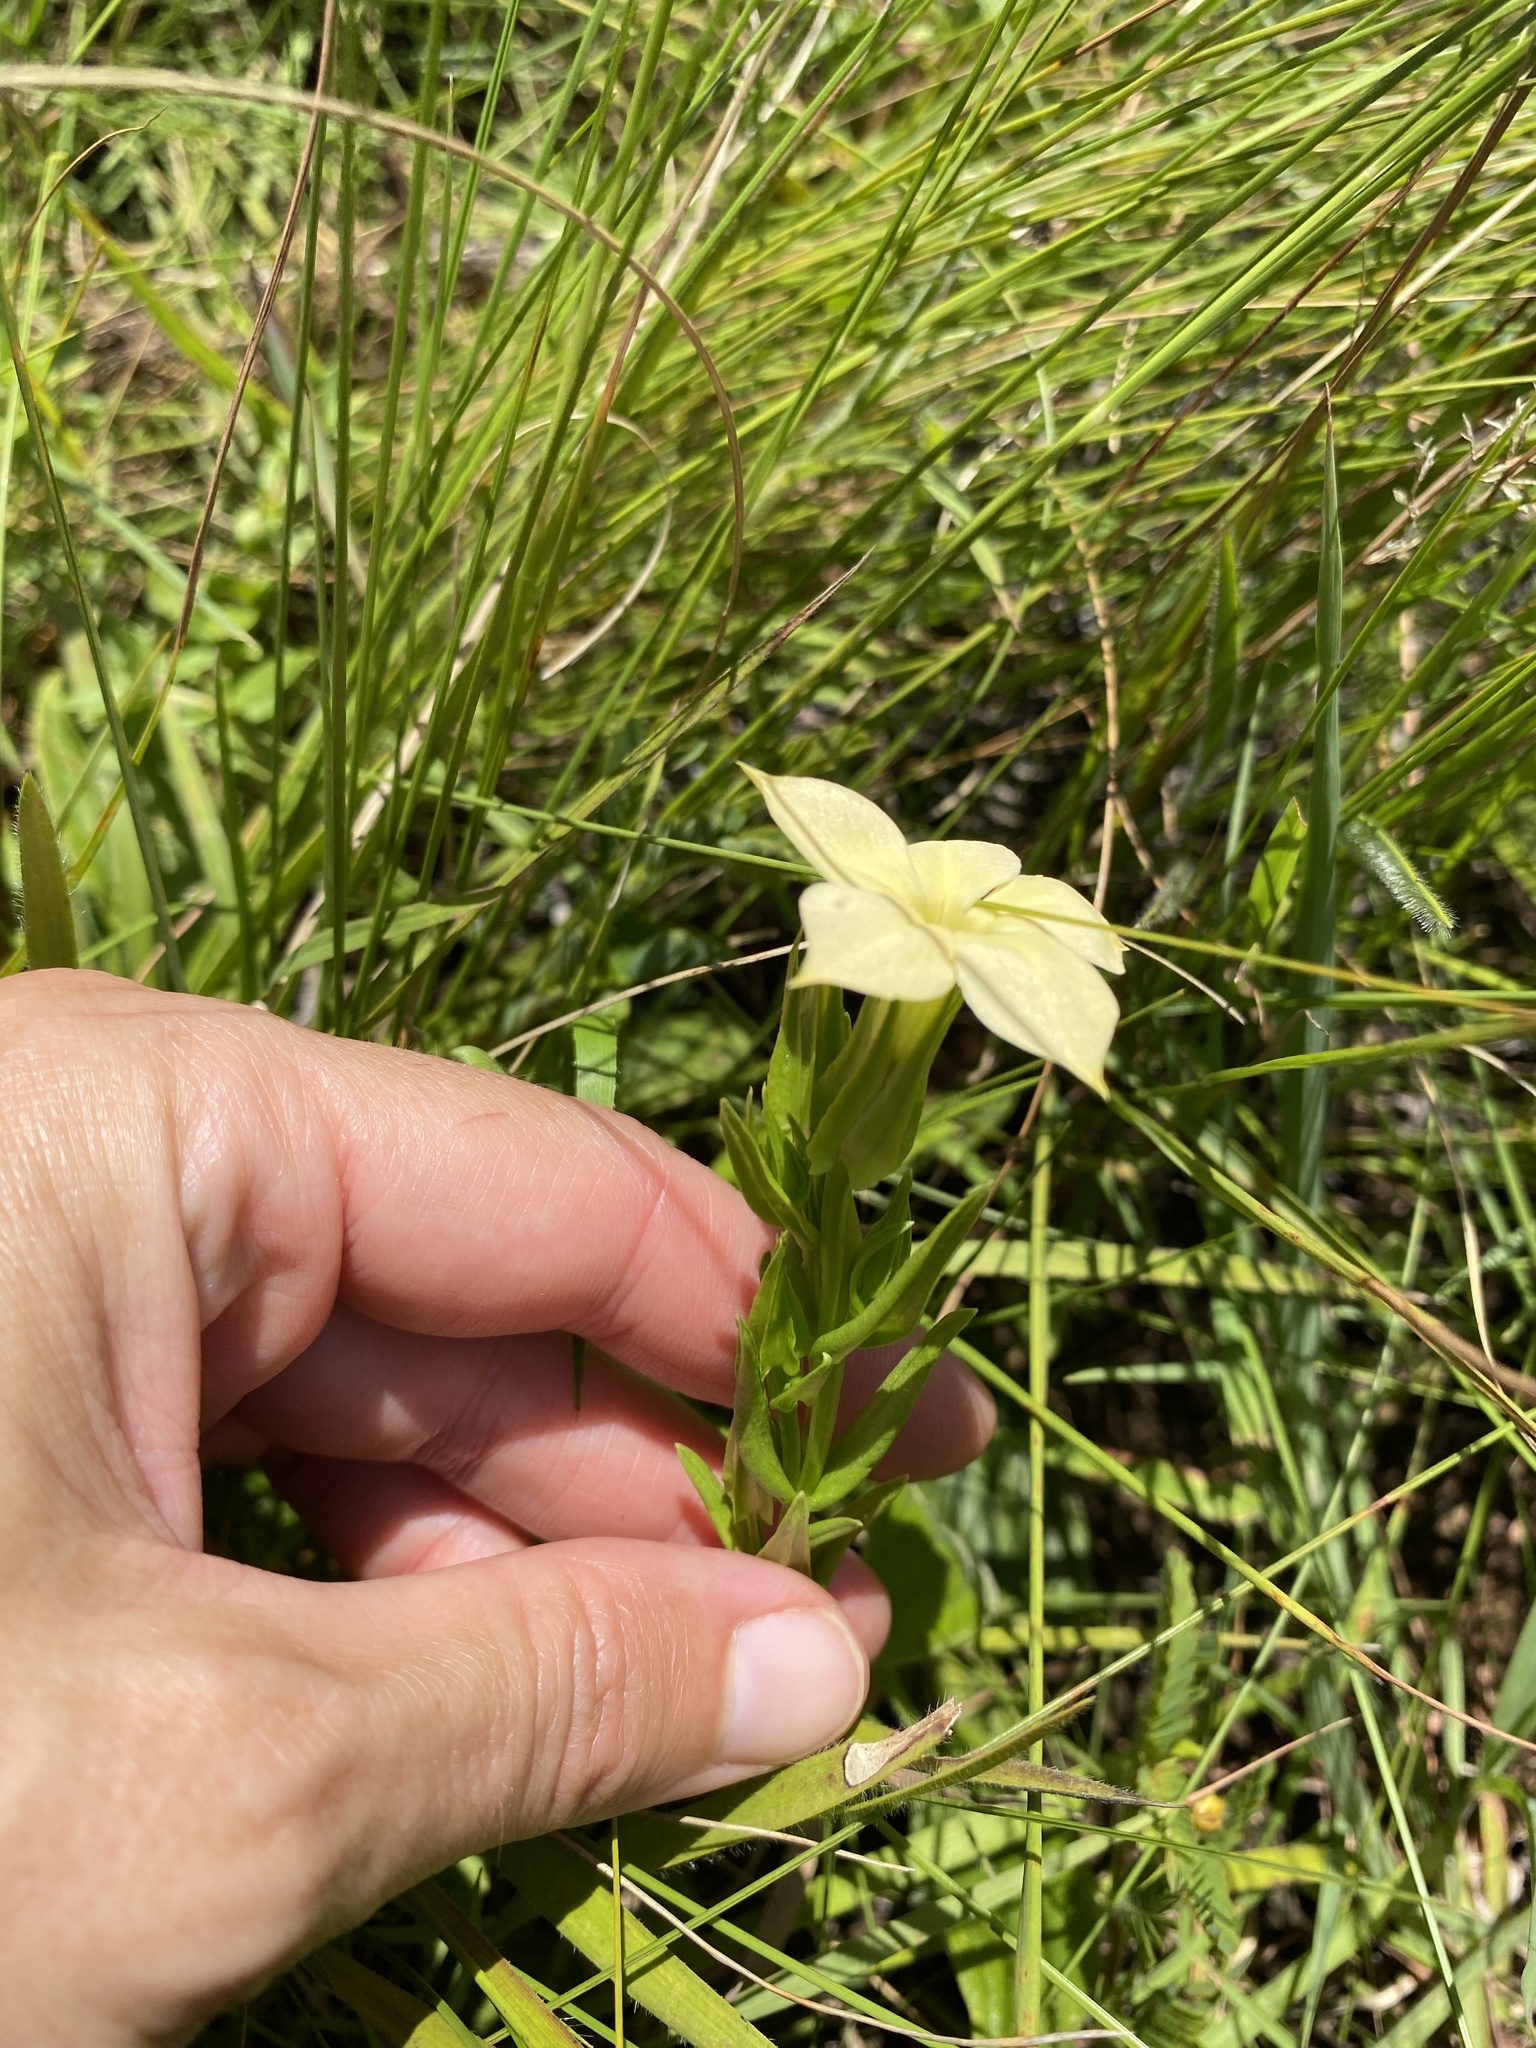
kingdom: Plantae
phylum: Tracheophyta
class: Magnoliopsida
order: Gentianales
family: Gentianaceae
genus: Exochaenium
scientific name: Exochaenium grande
